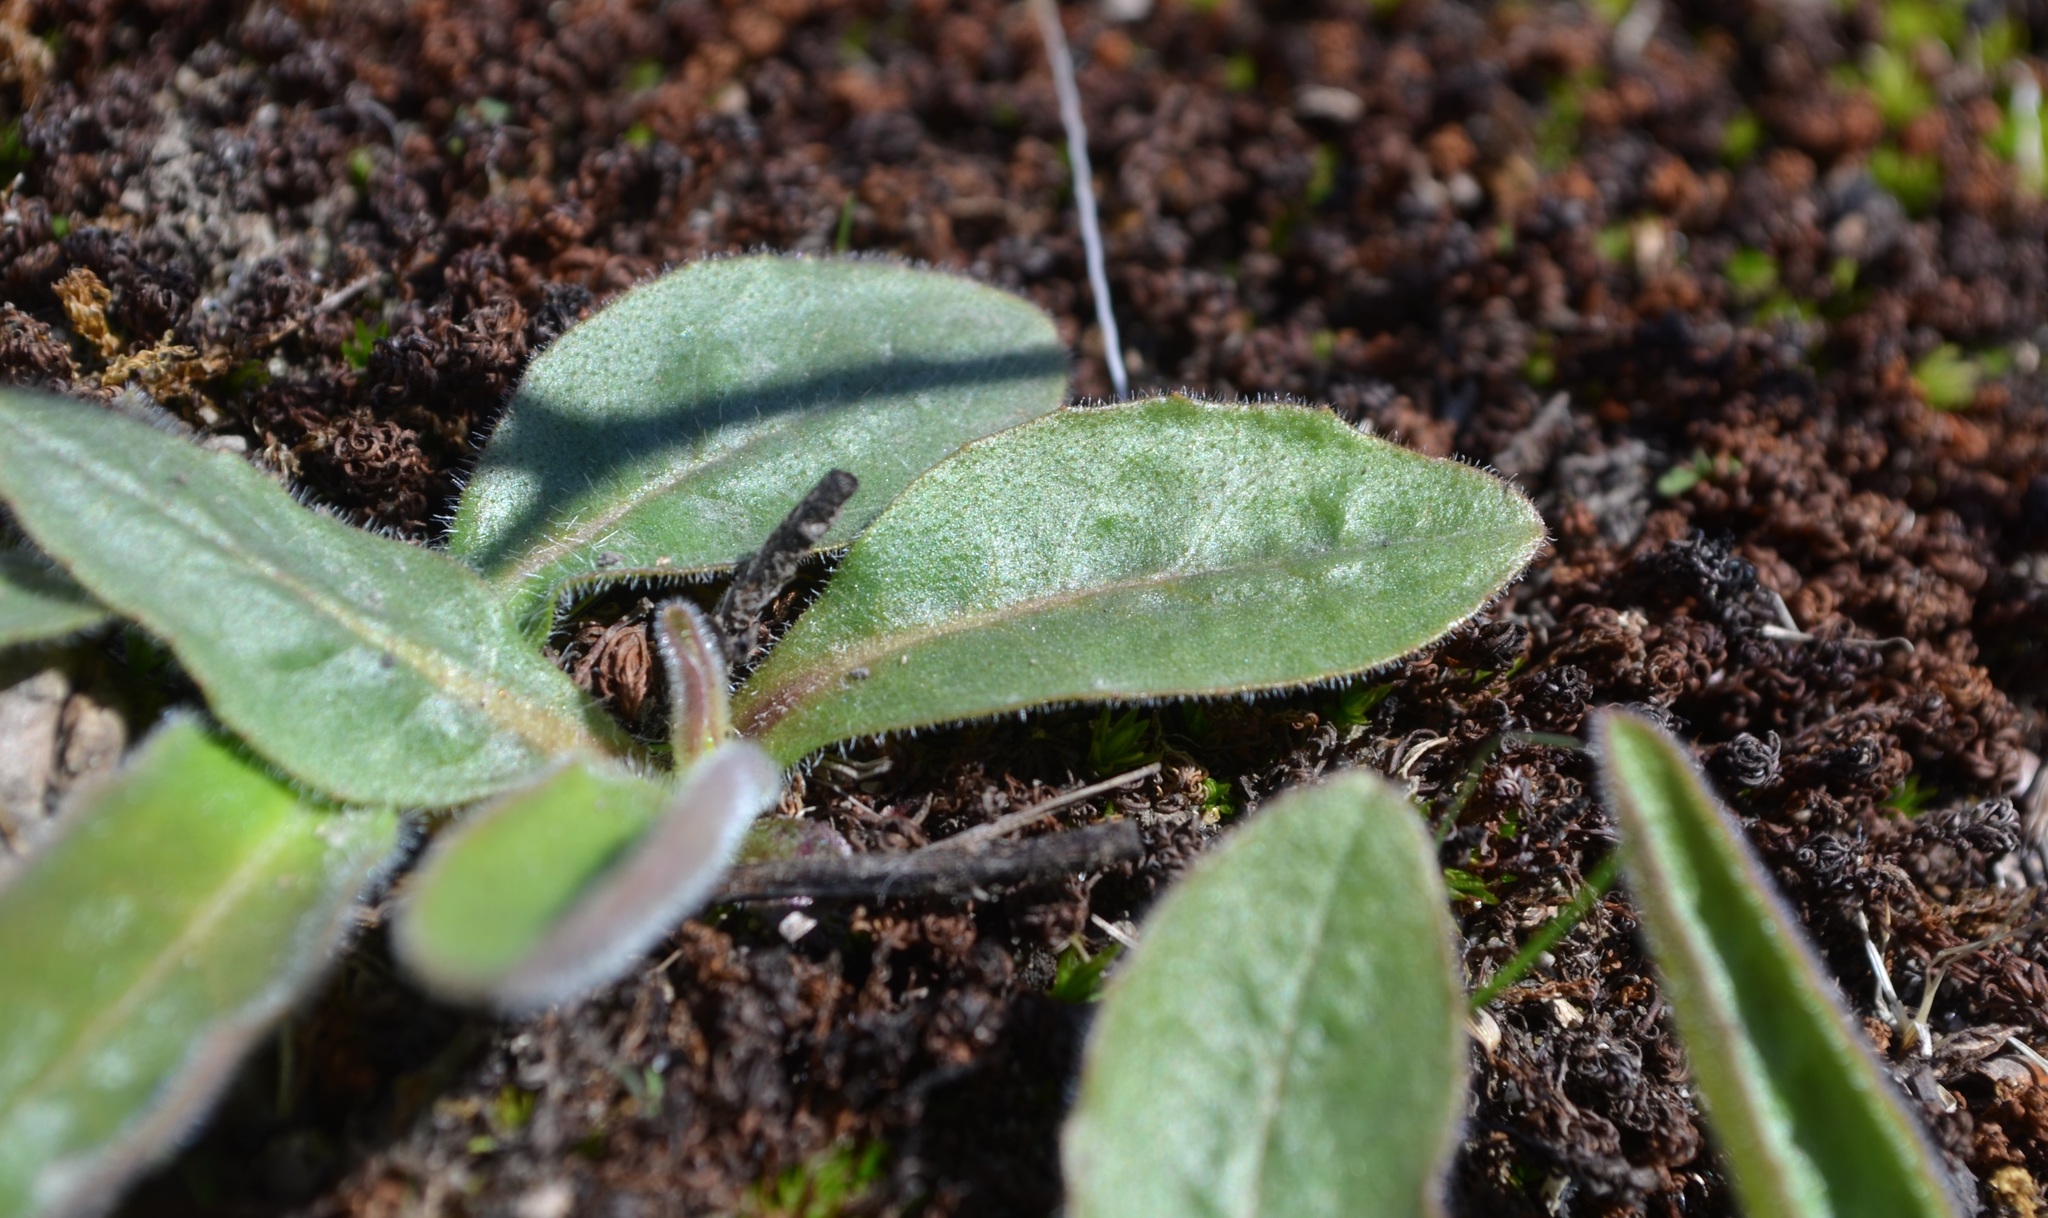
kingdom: Plantae
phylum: Tracheophyta
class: Magnoliopsida
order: Asterales
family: Asteraceae
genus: Hieracium
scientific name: Hieracium scabrum
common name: Rough hawkweed
